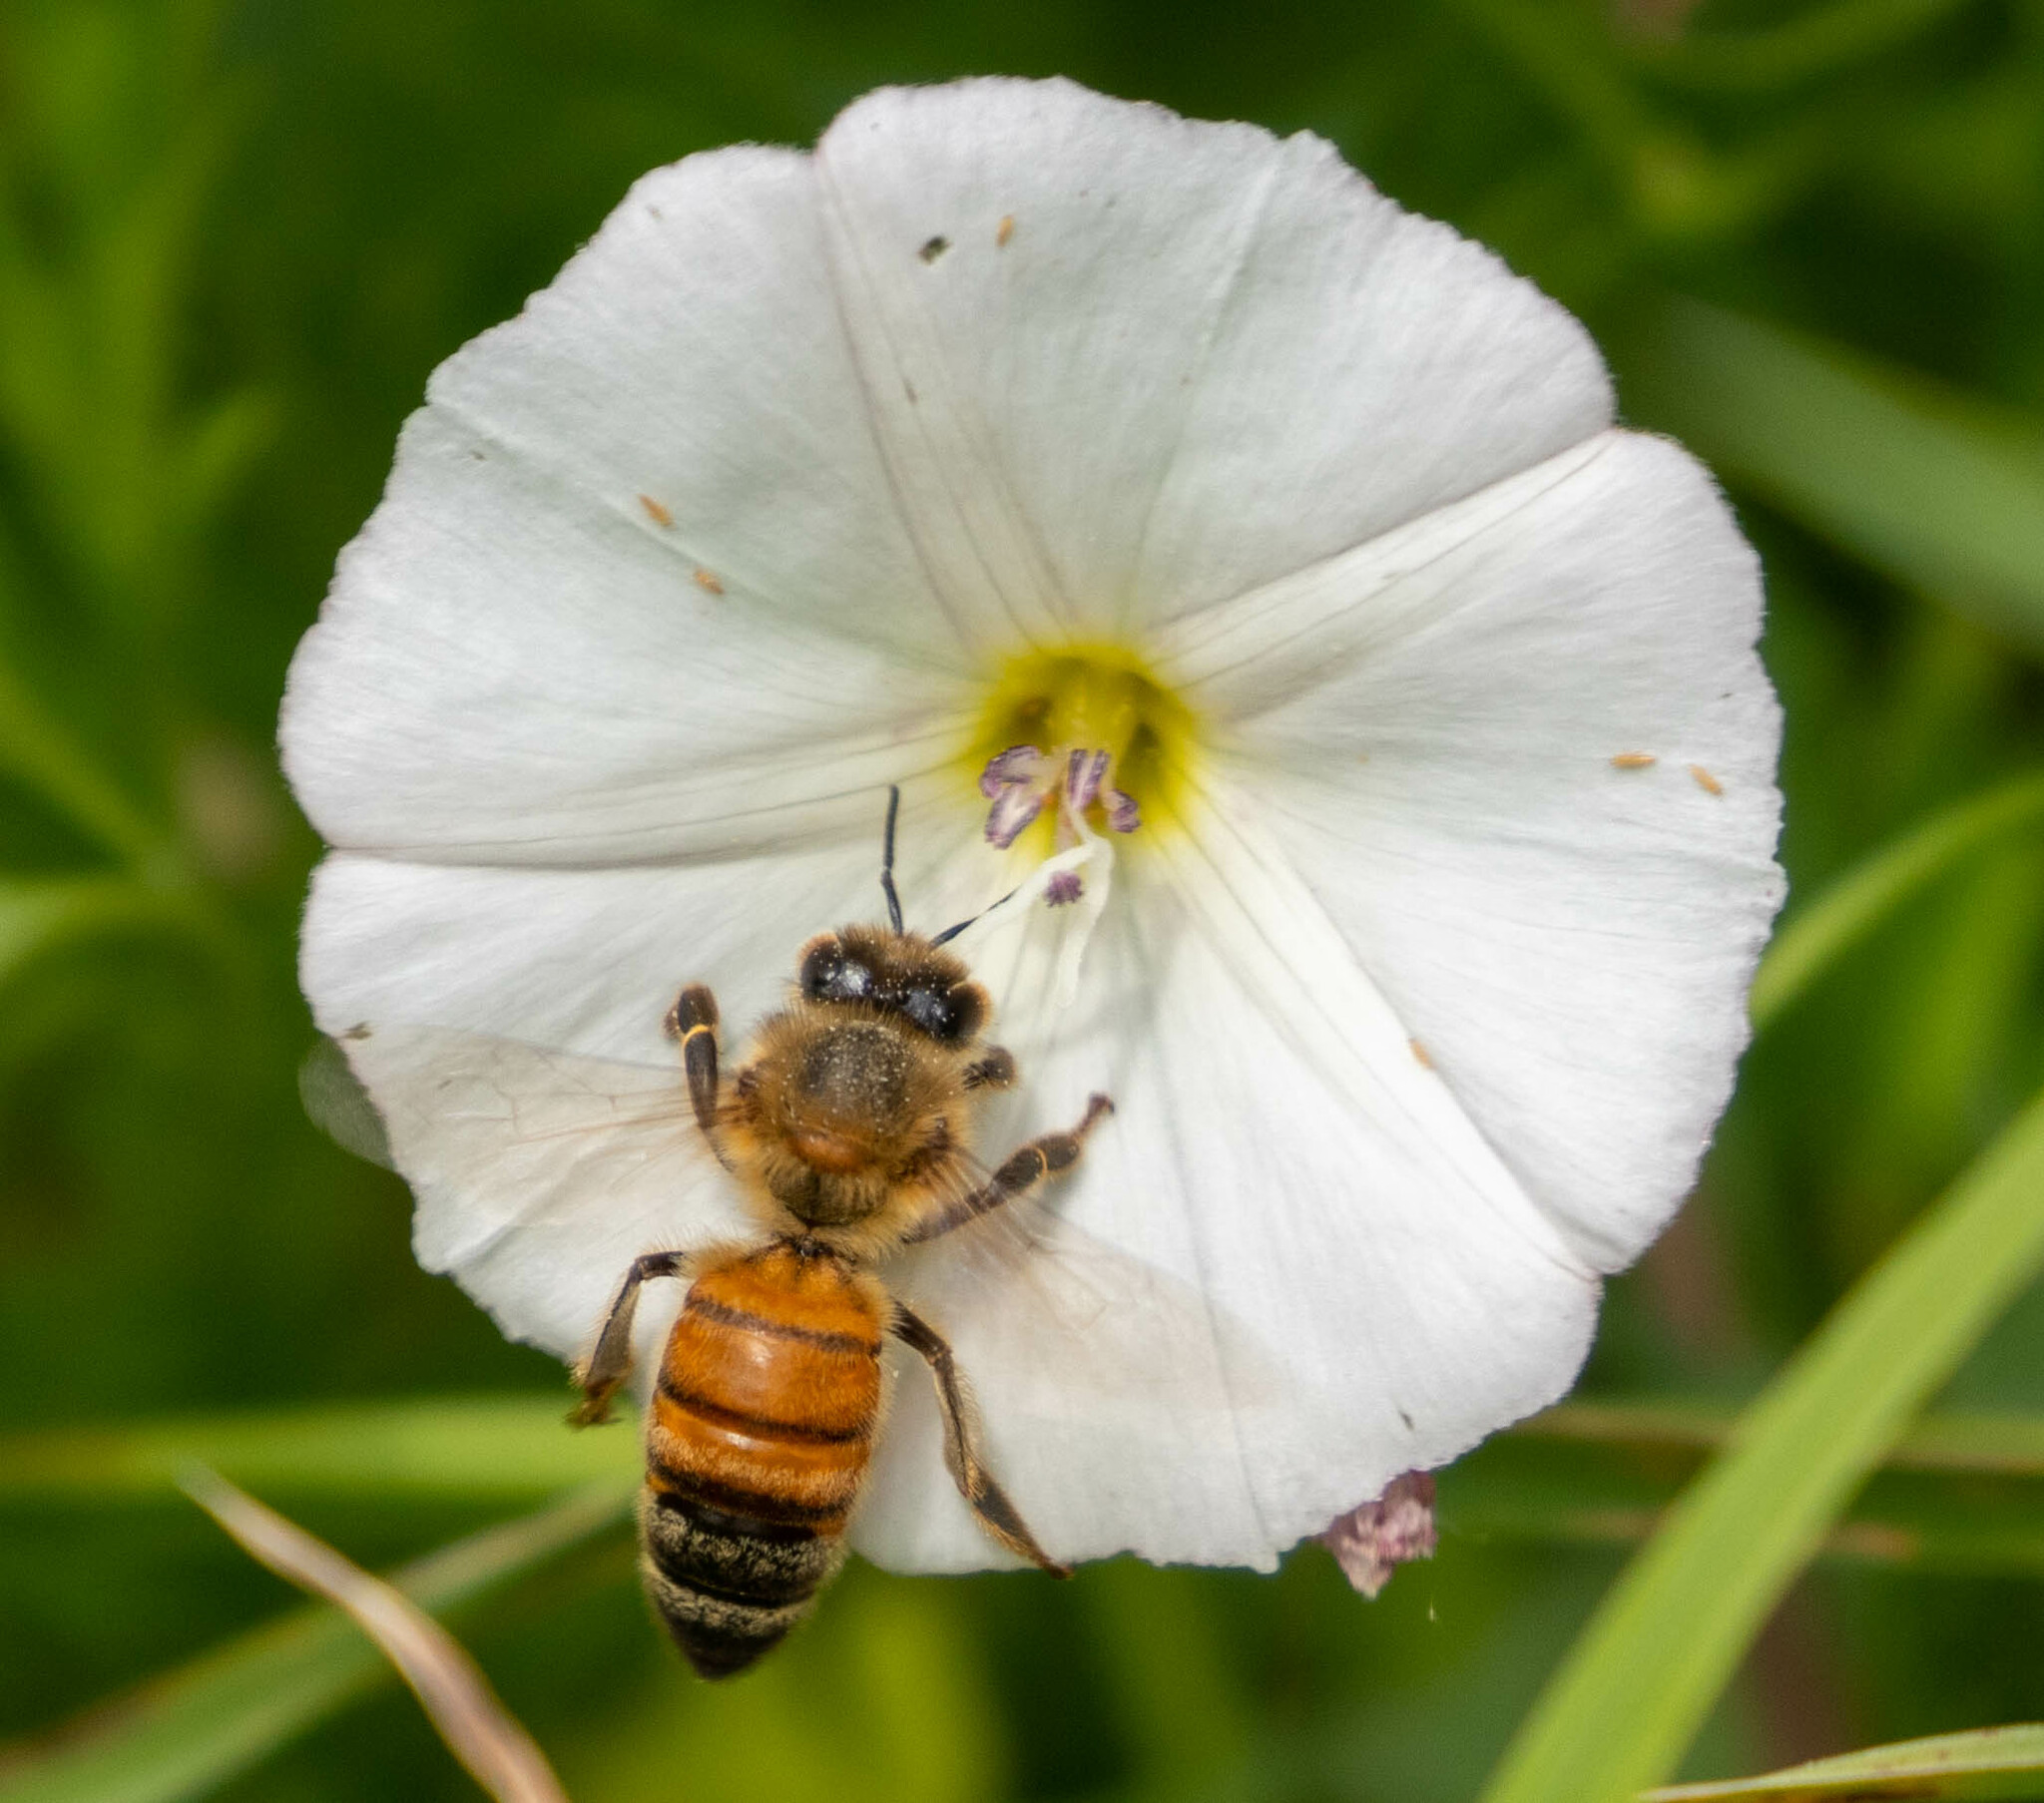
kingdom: Animalia
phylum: Arthropoda
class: Insecta
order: Hymenoptera
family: Apidae
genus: Apis
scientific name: Apis mellifera
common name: Honey bee
